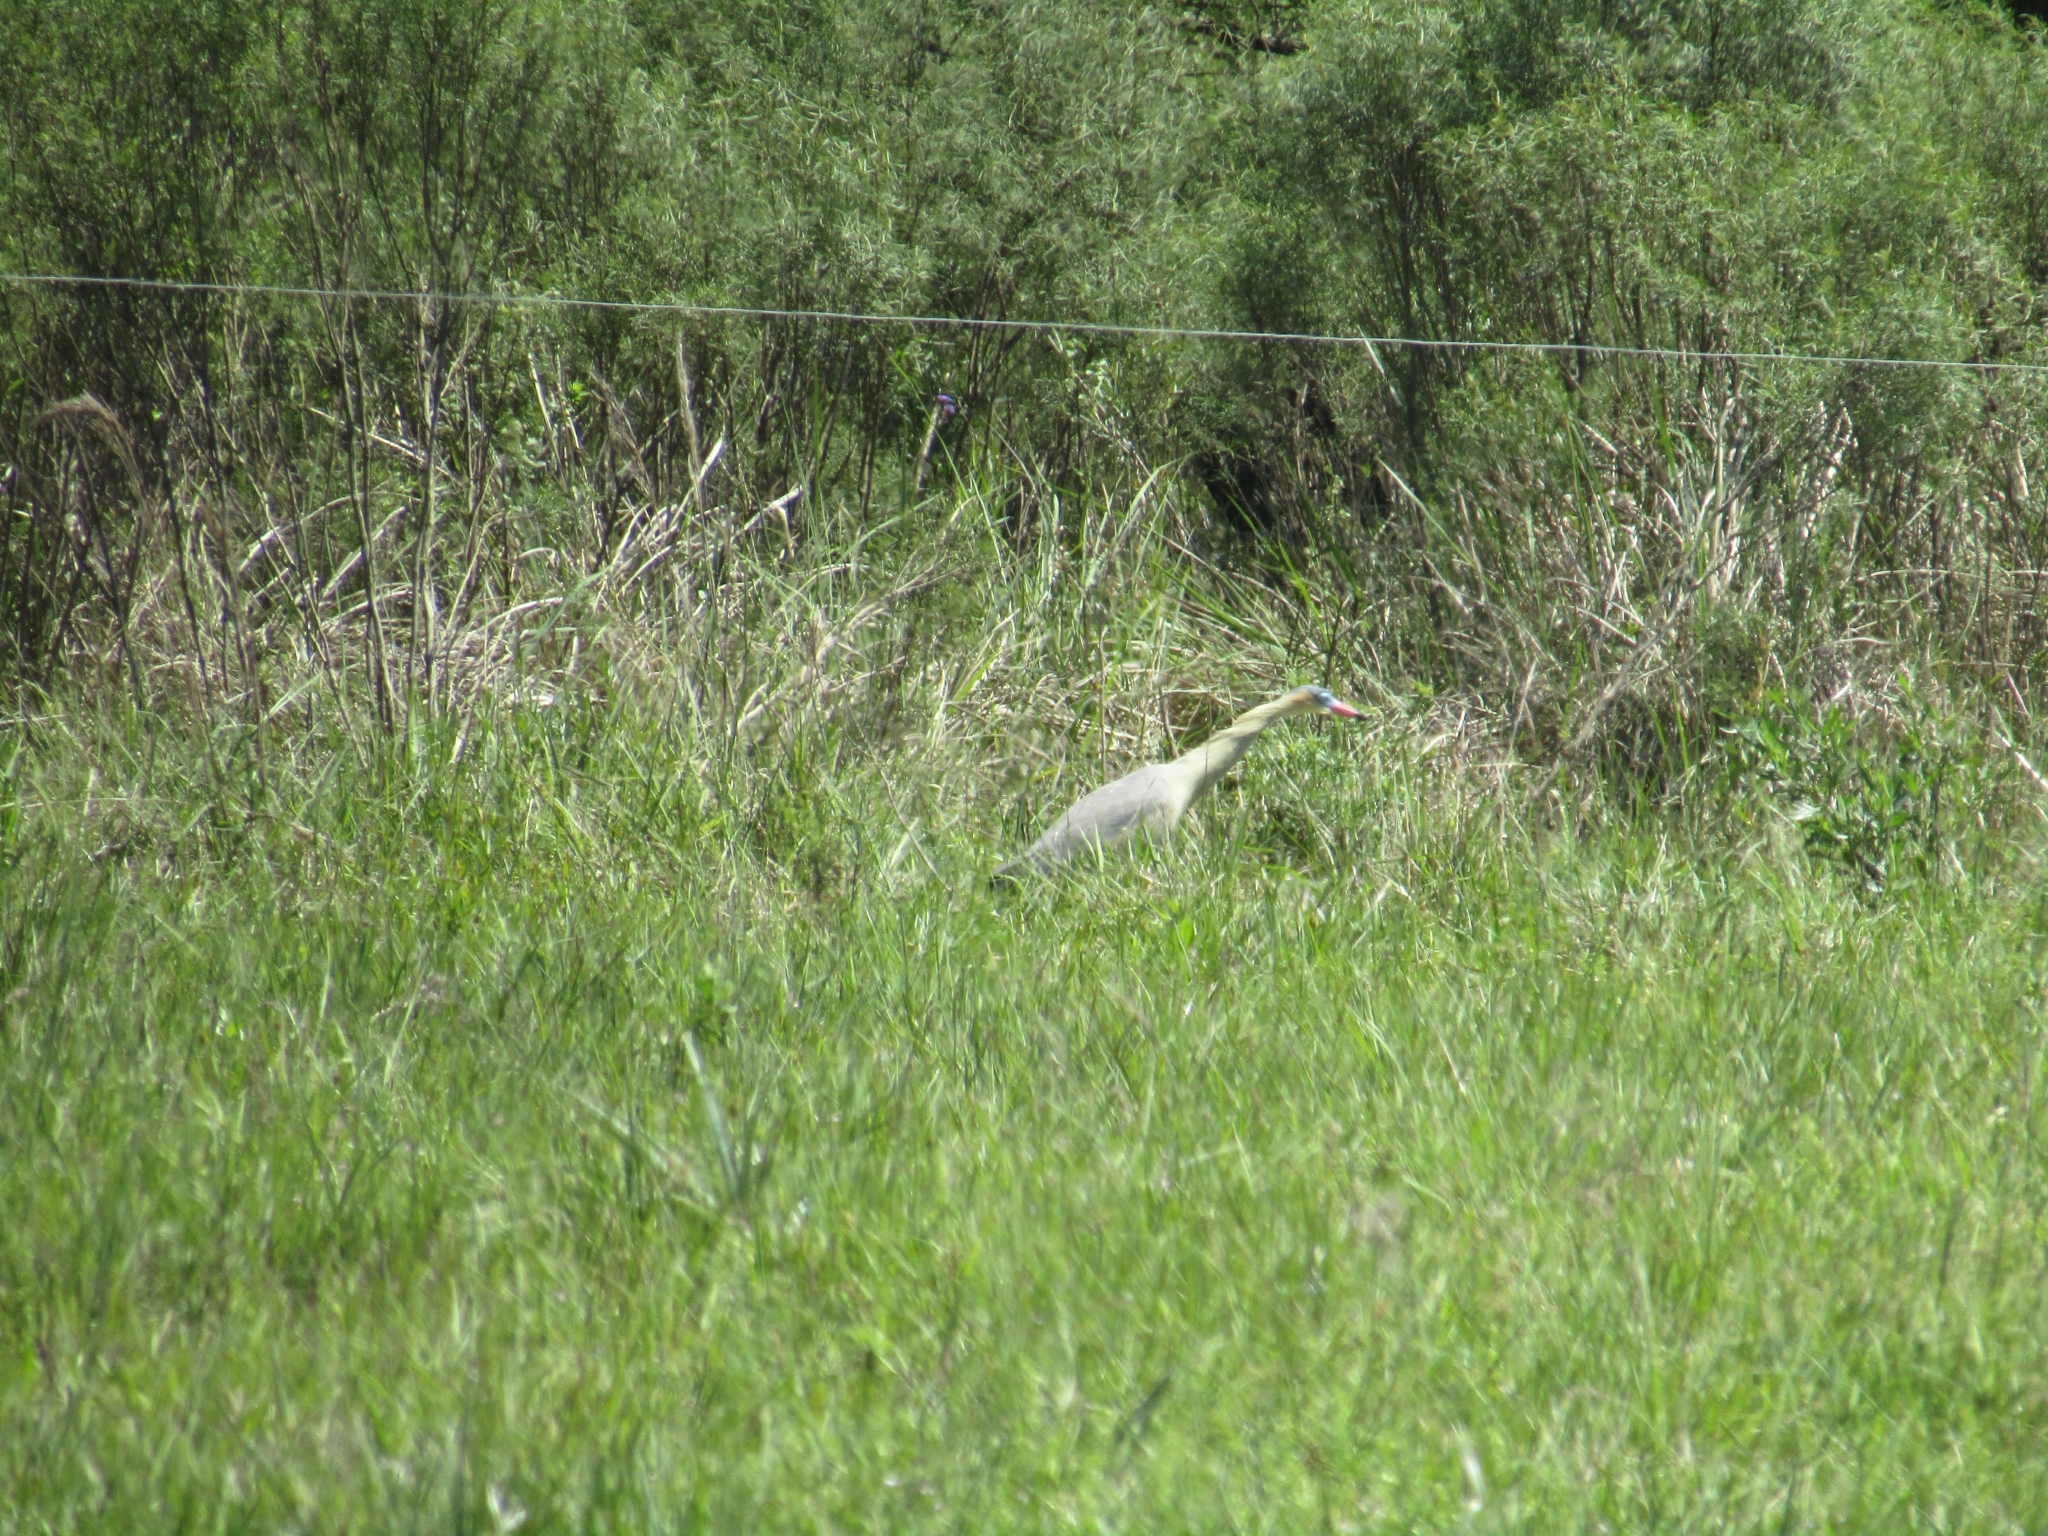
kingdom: Animalia
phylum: Chordata
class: Aves
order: Pelecaniformes
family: Ardeidae
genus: Syrigma
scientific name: Syrigma sibilatrix
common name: Whistling heron
